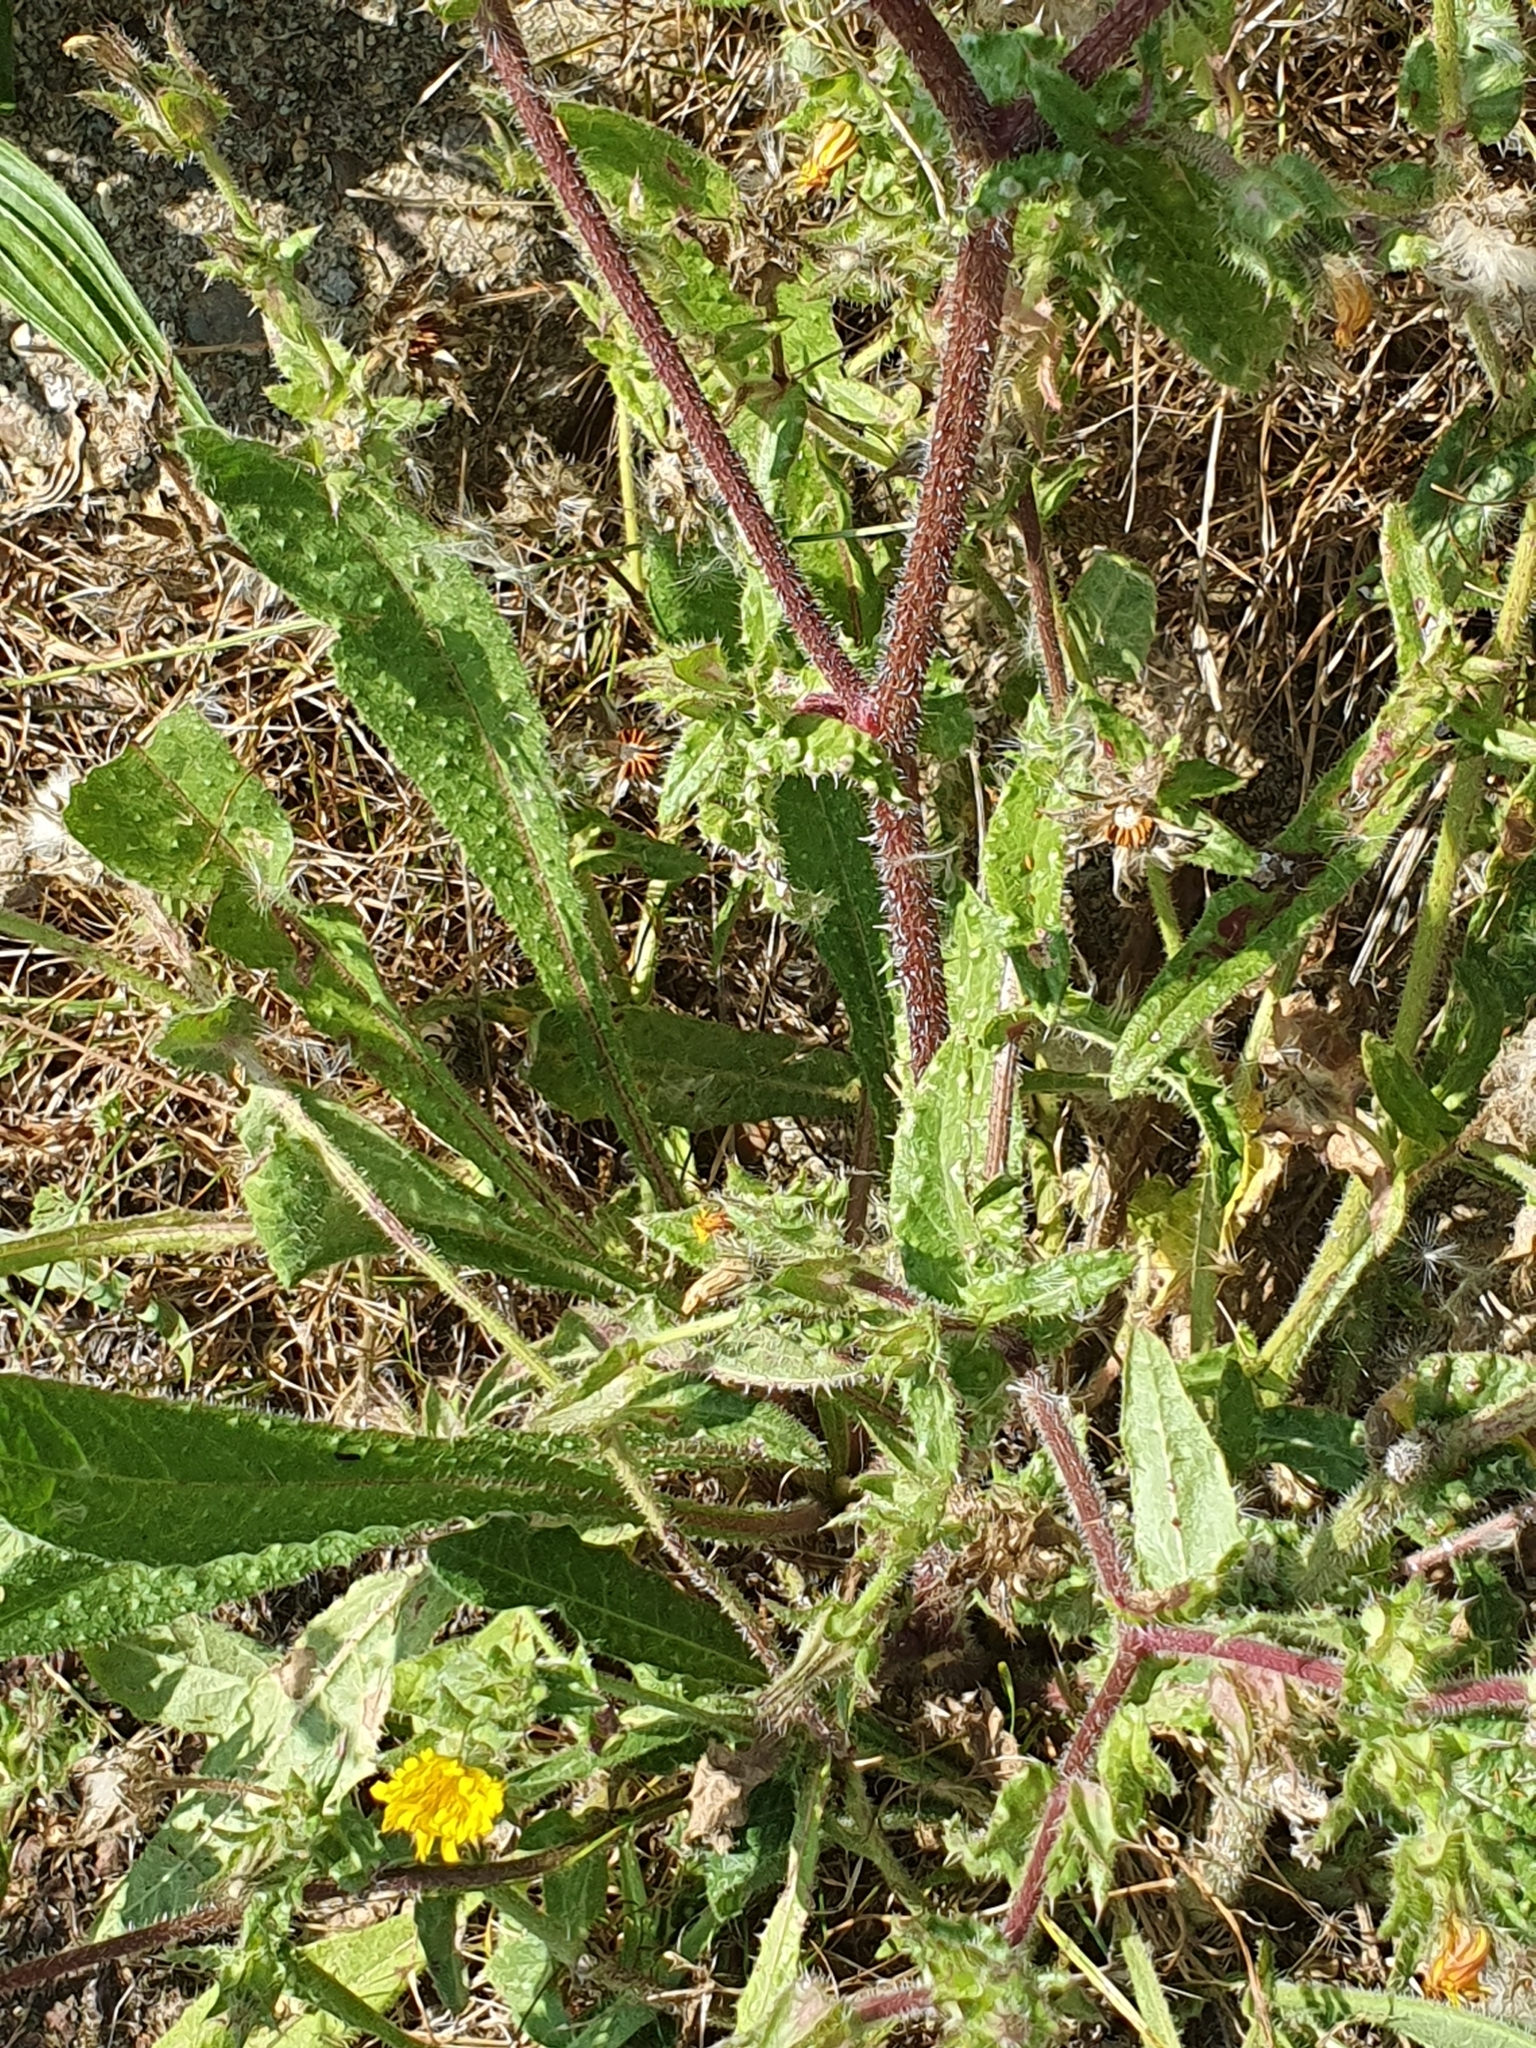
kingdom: Plantae
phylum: Tracheophyta
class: Magnoliopsida
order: Asterales
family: Asteraceae
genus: Helminthotheca
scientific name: Helminthotheca echioides
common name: Ox-tongue
